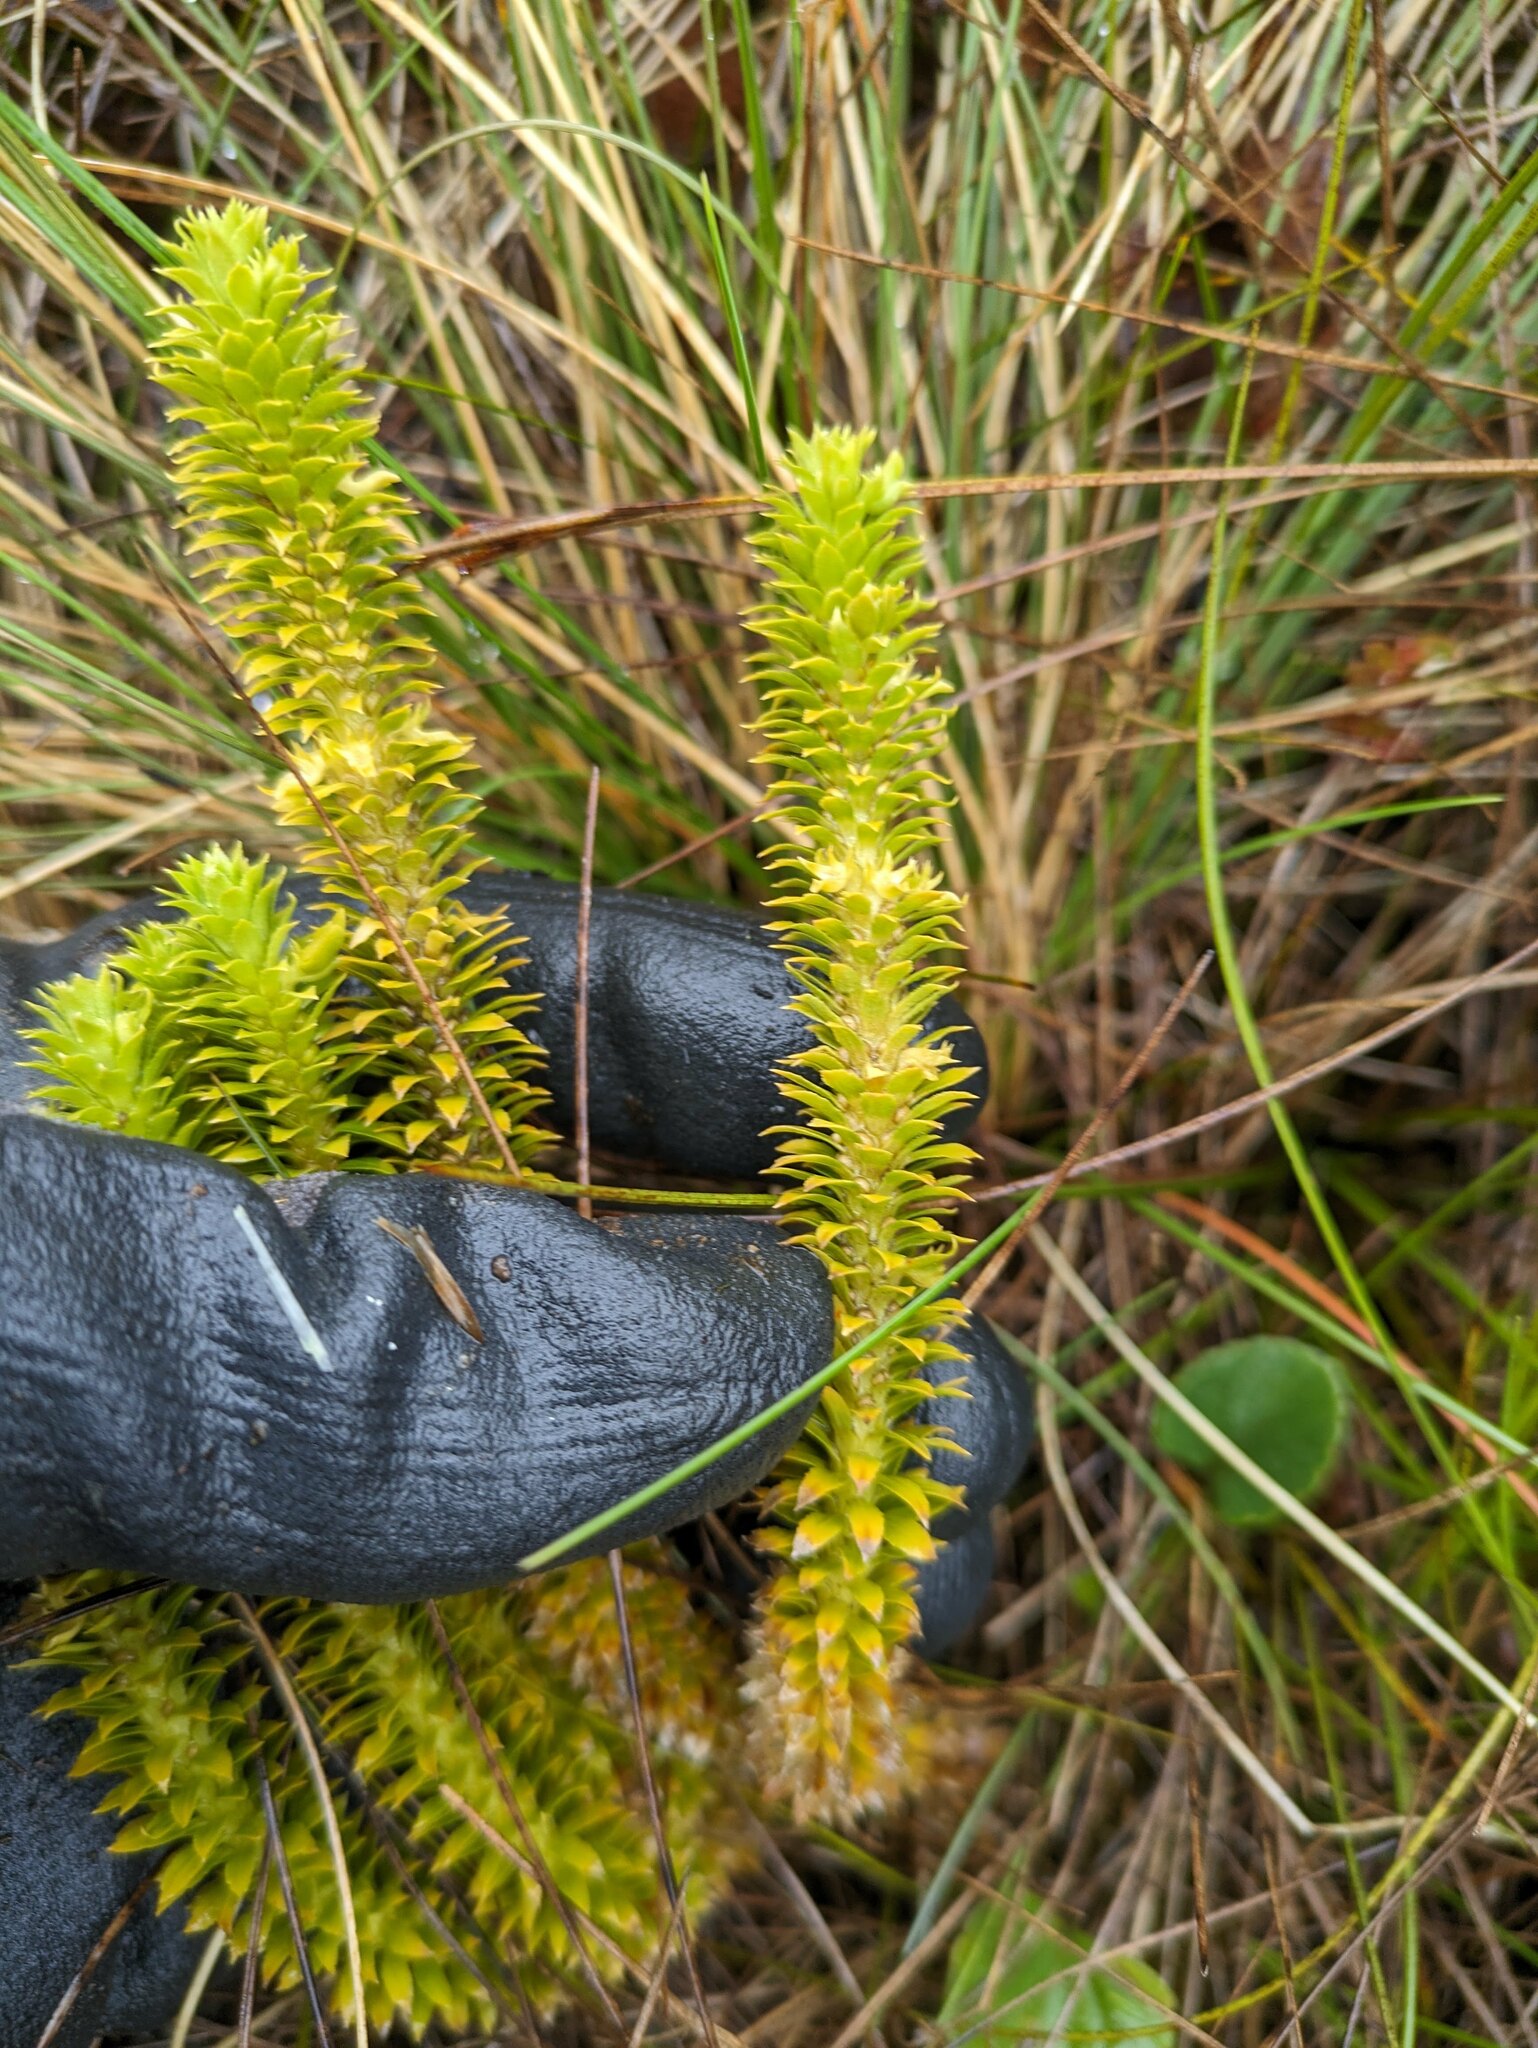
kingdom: Plantae
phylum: Tracheophyta
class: Lycopodiopsida
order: Lycopodiales
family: Lycopodiaceae
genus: Huperzia
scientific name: Huperzia erosa
